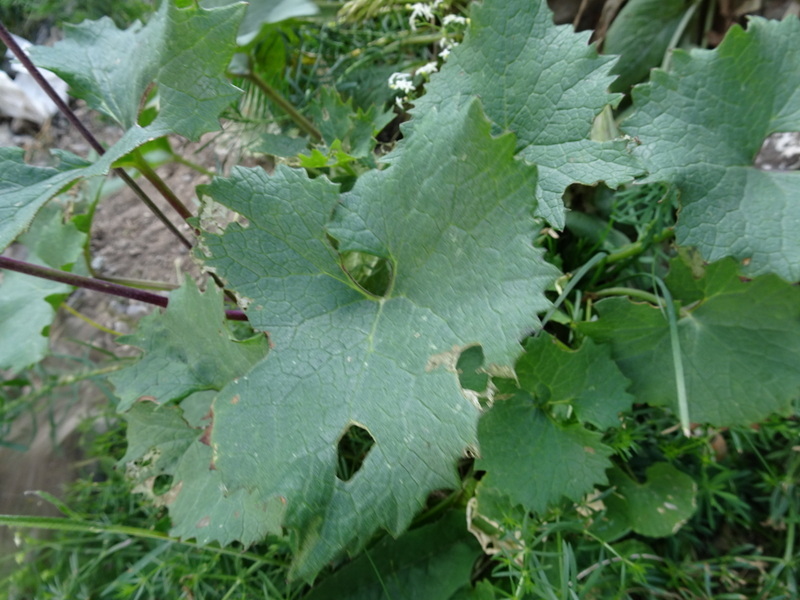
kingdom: Plantae
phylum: Tracheophyta
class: Magnoliopsida
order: Asterales
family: Asteraceae
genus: Adenostyles
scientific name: Adenostyles alliariae
